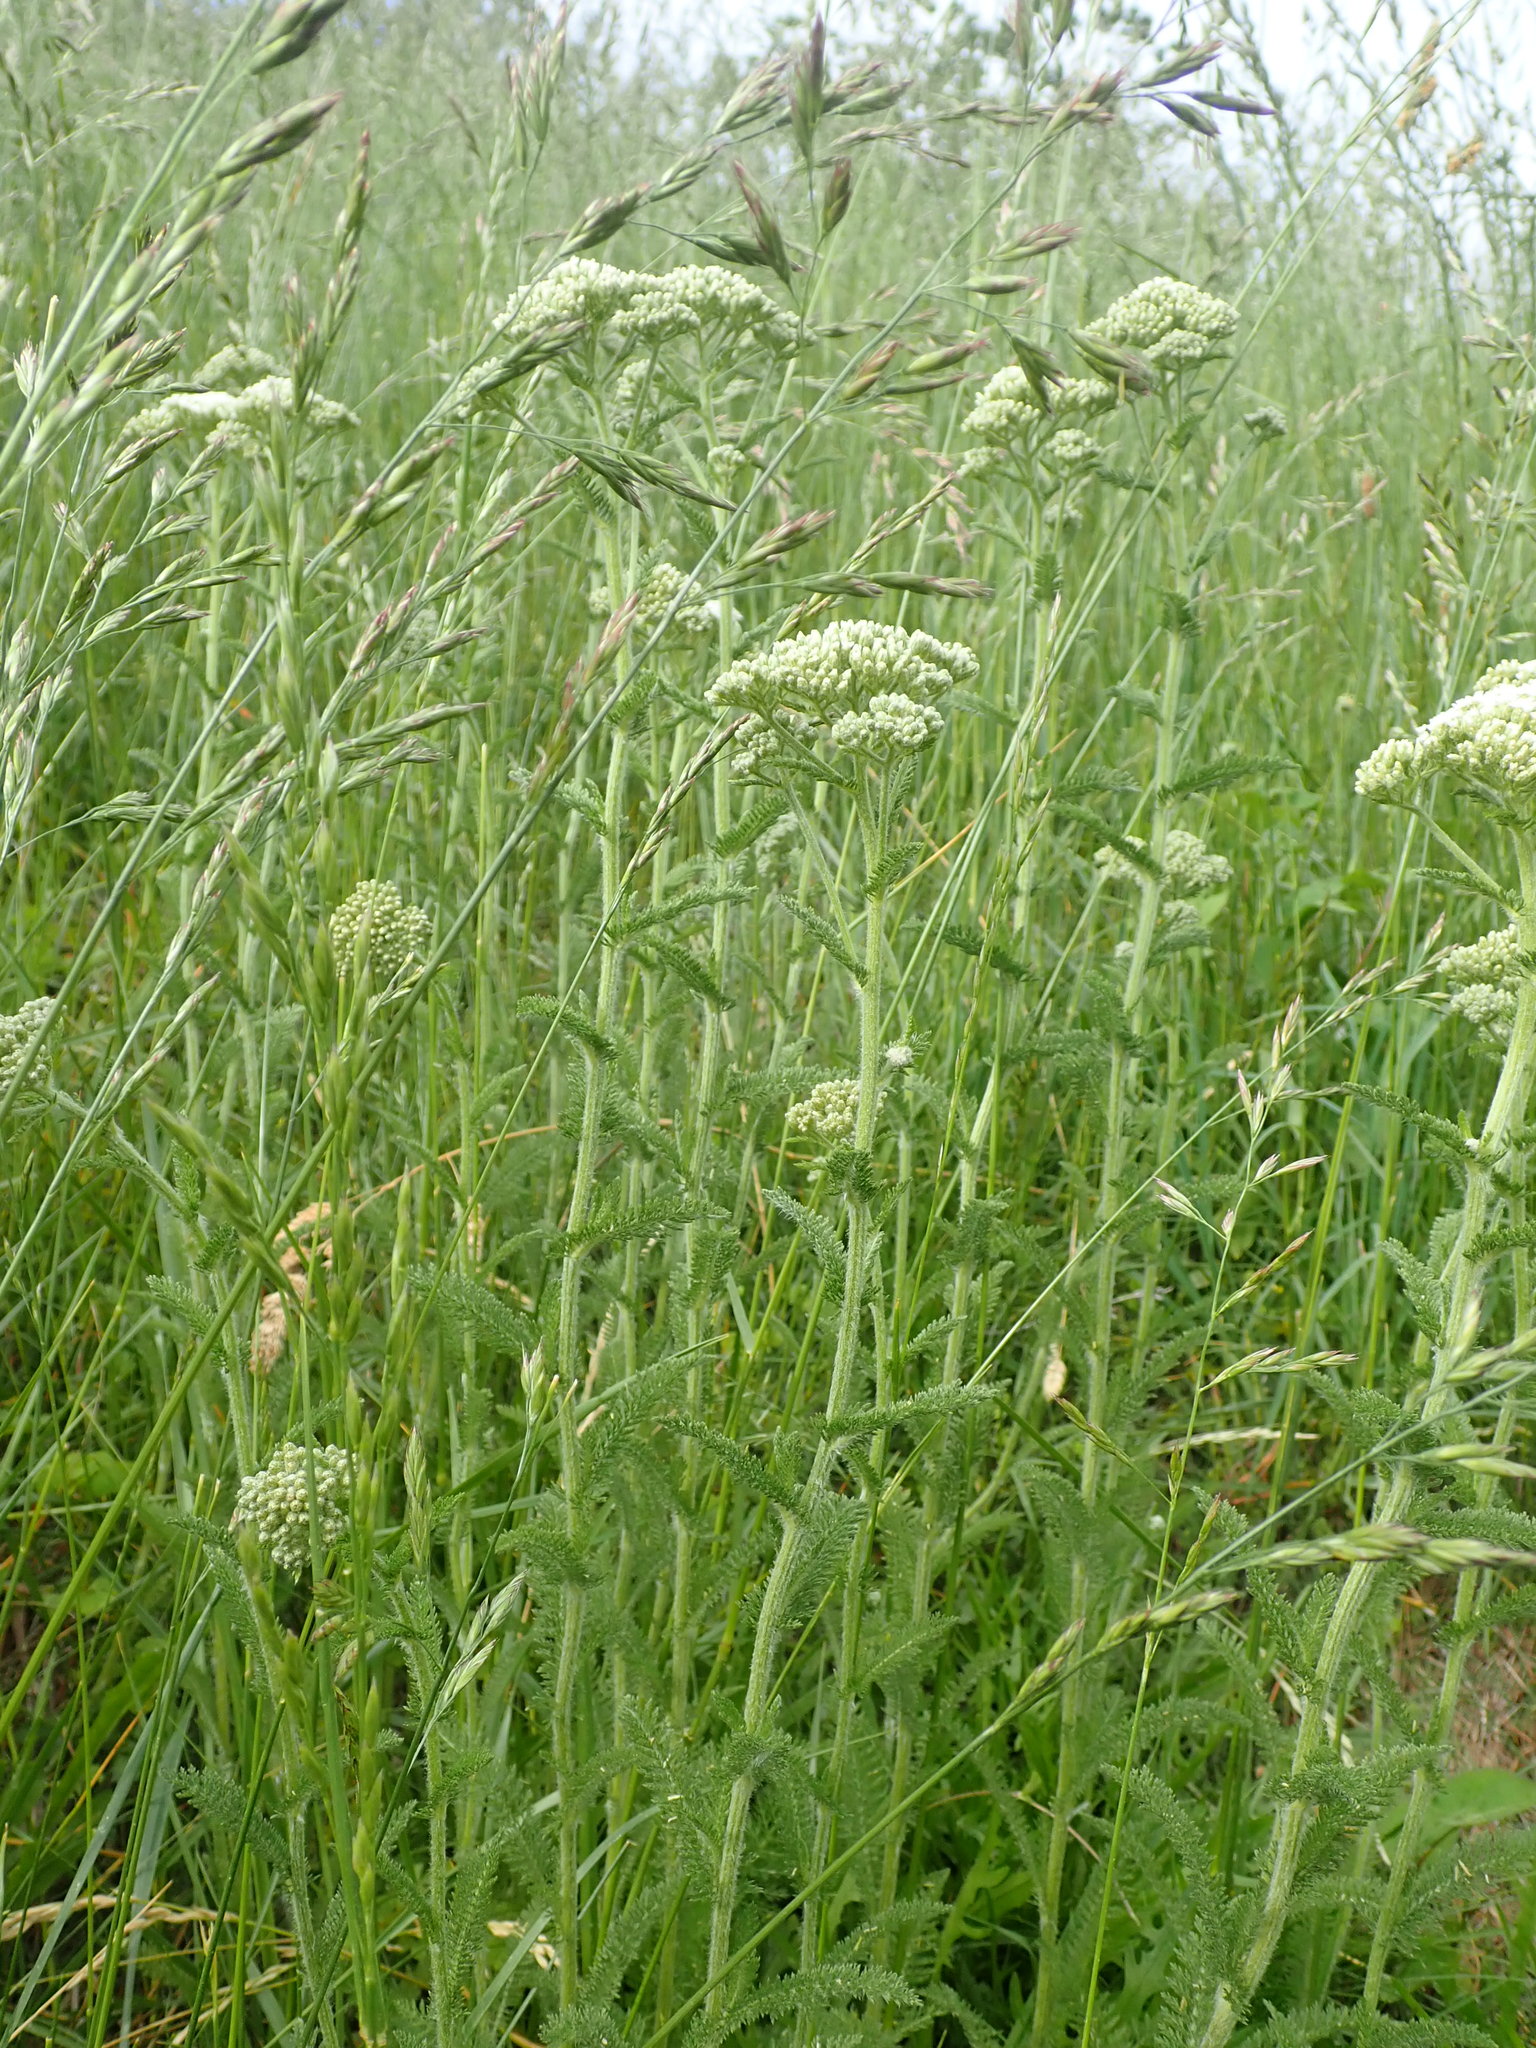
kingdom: Plantae
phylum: Tracheophyta
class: Magnoliopsida
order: Asterales
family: Asteraceae
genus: Achillea
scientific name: Achillea millefolium
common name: Yarrow
